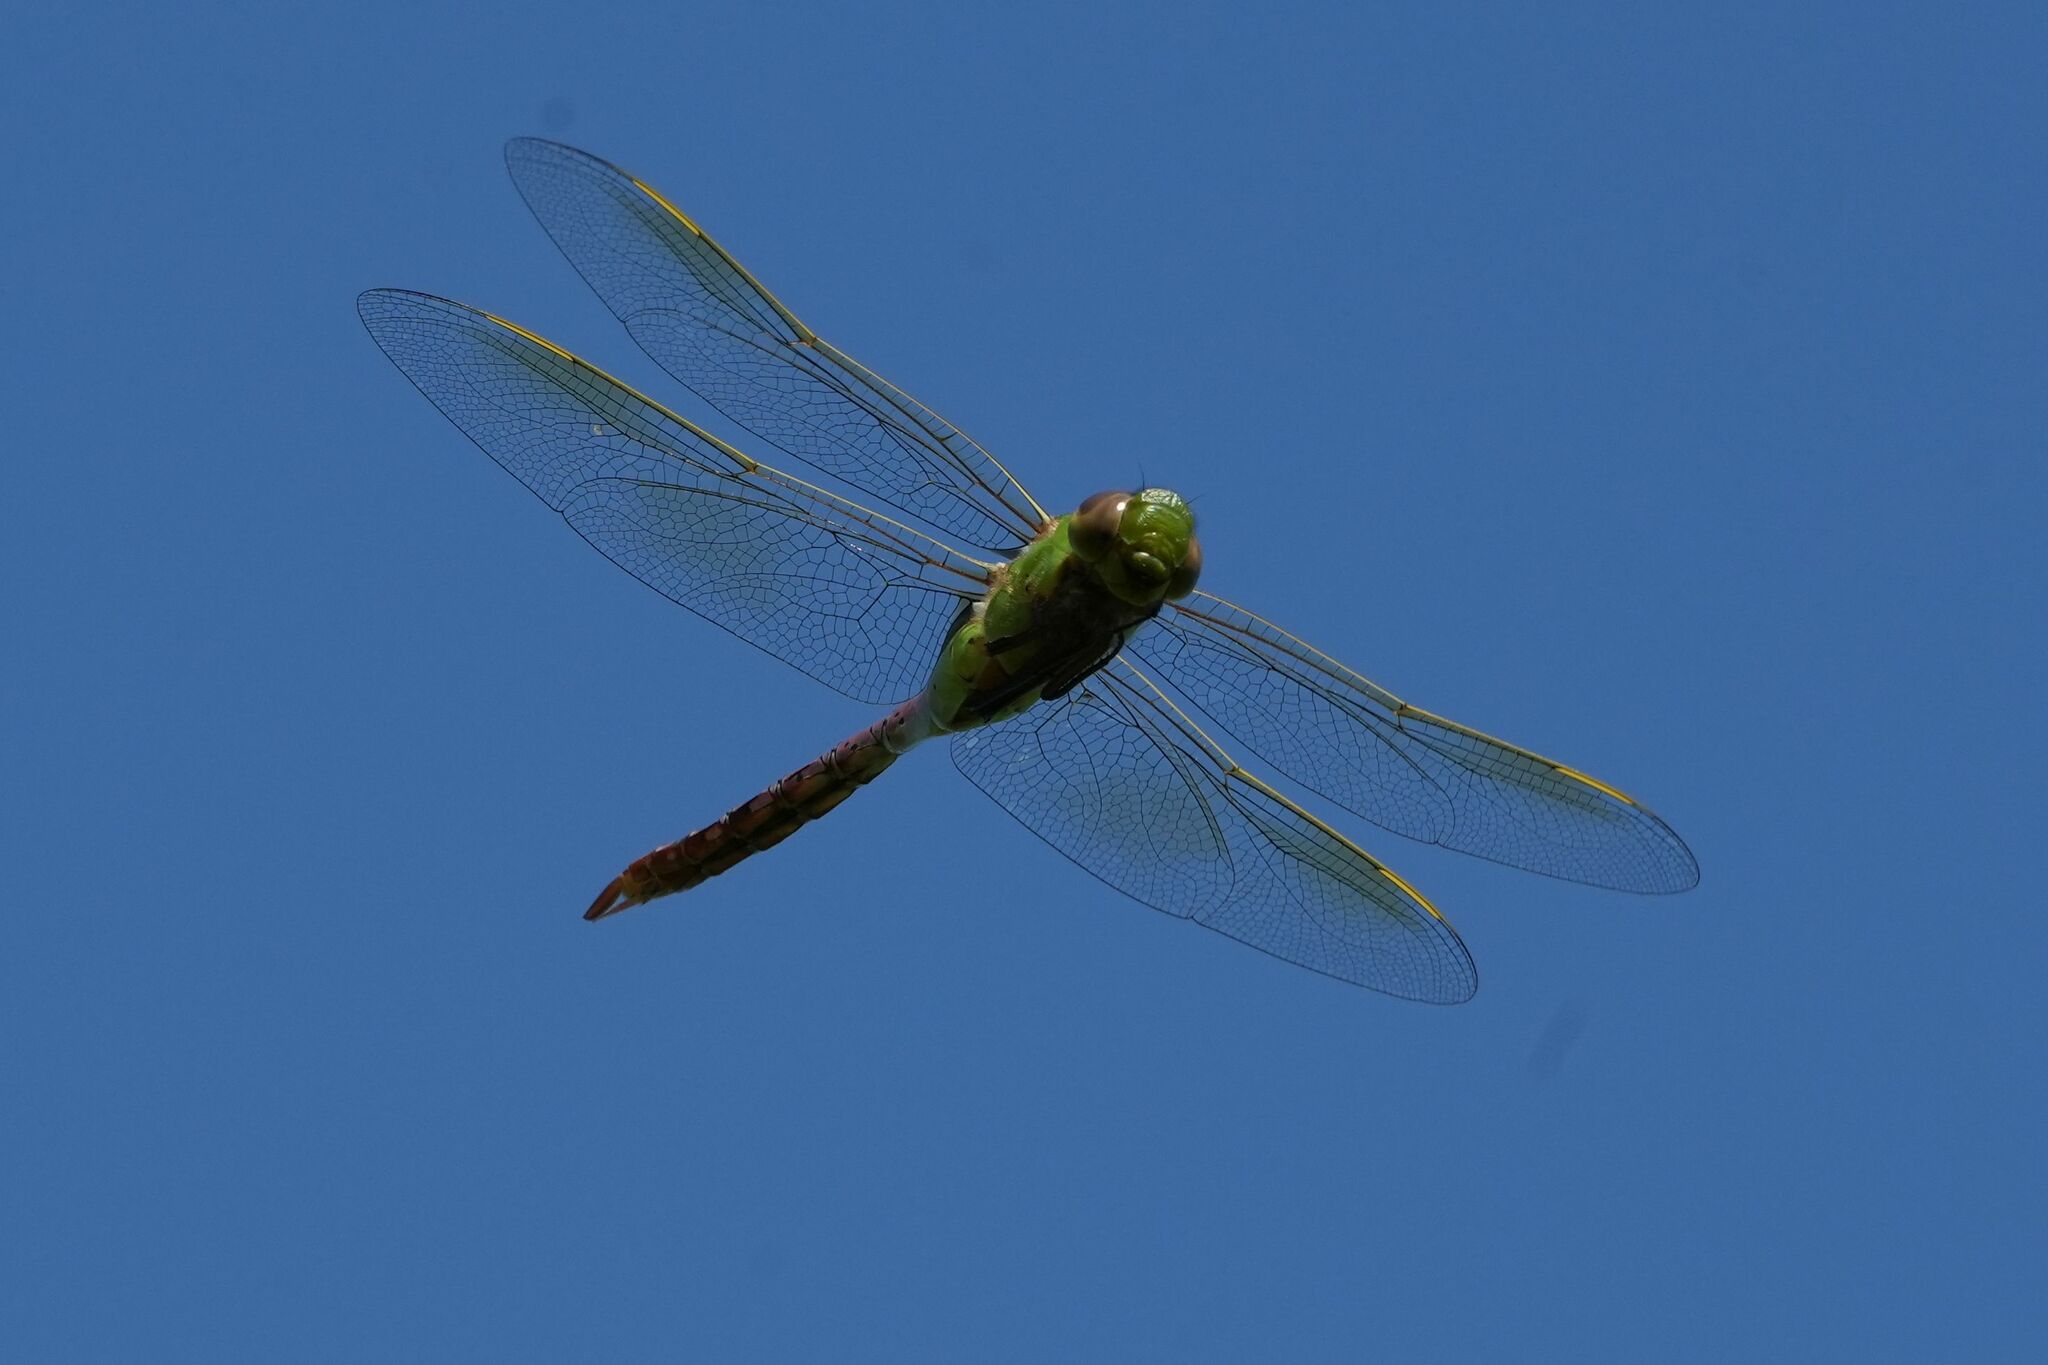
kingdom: Animalia
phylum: Arthropoda
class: Insecta
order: Odonata
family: Aeshnidae
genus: Anax
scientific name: Anax junius
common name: Common green darner
